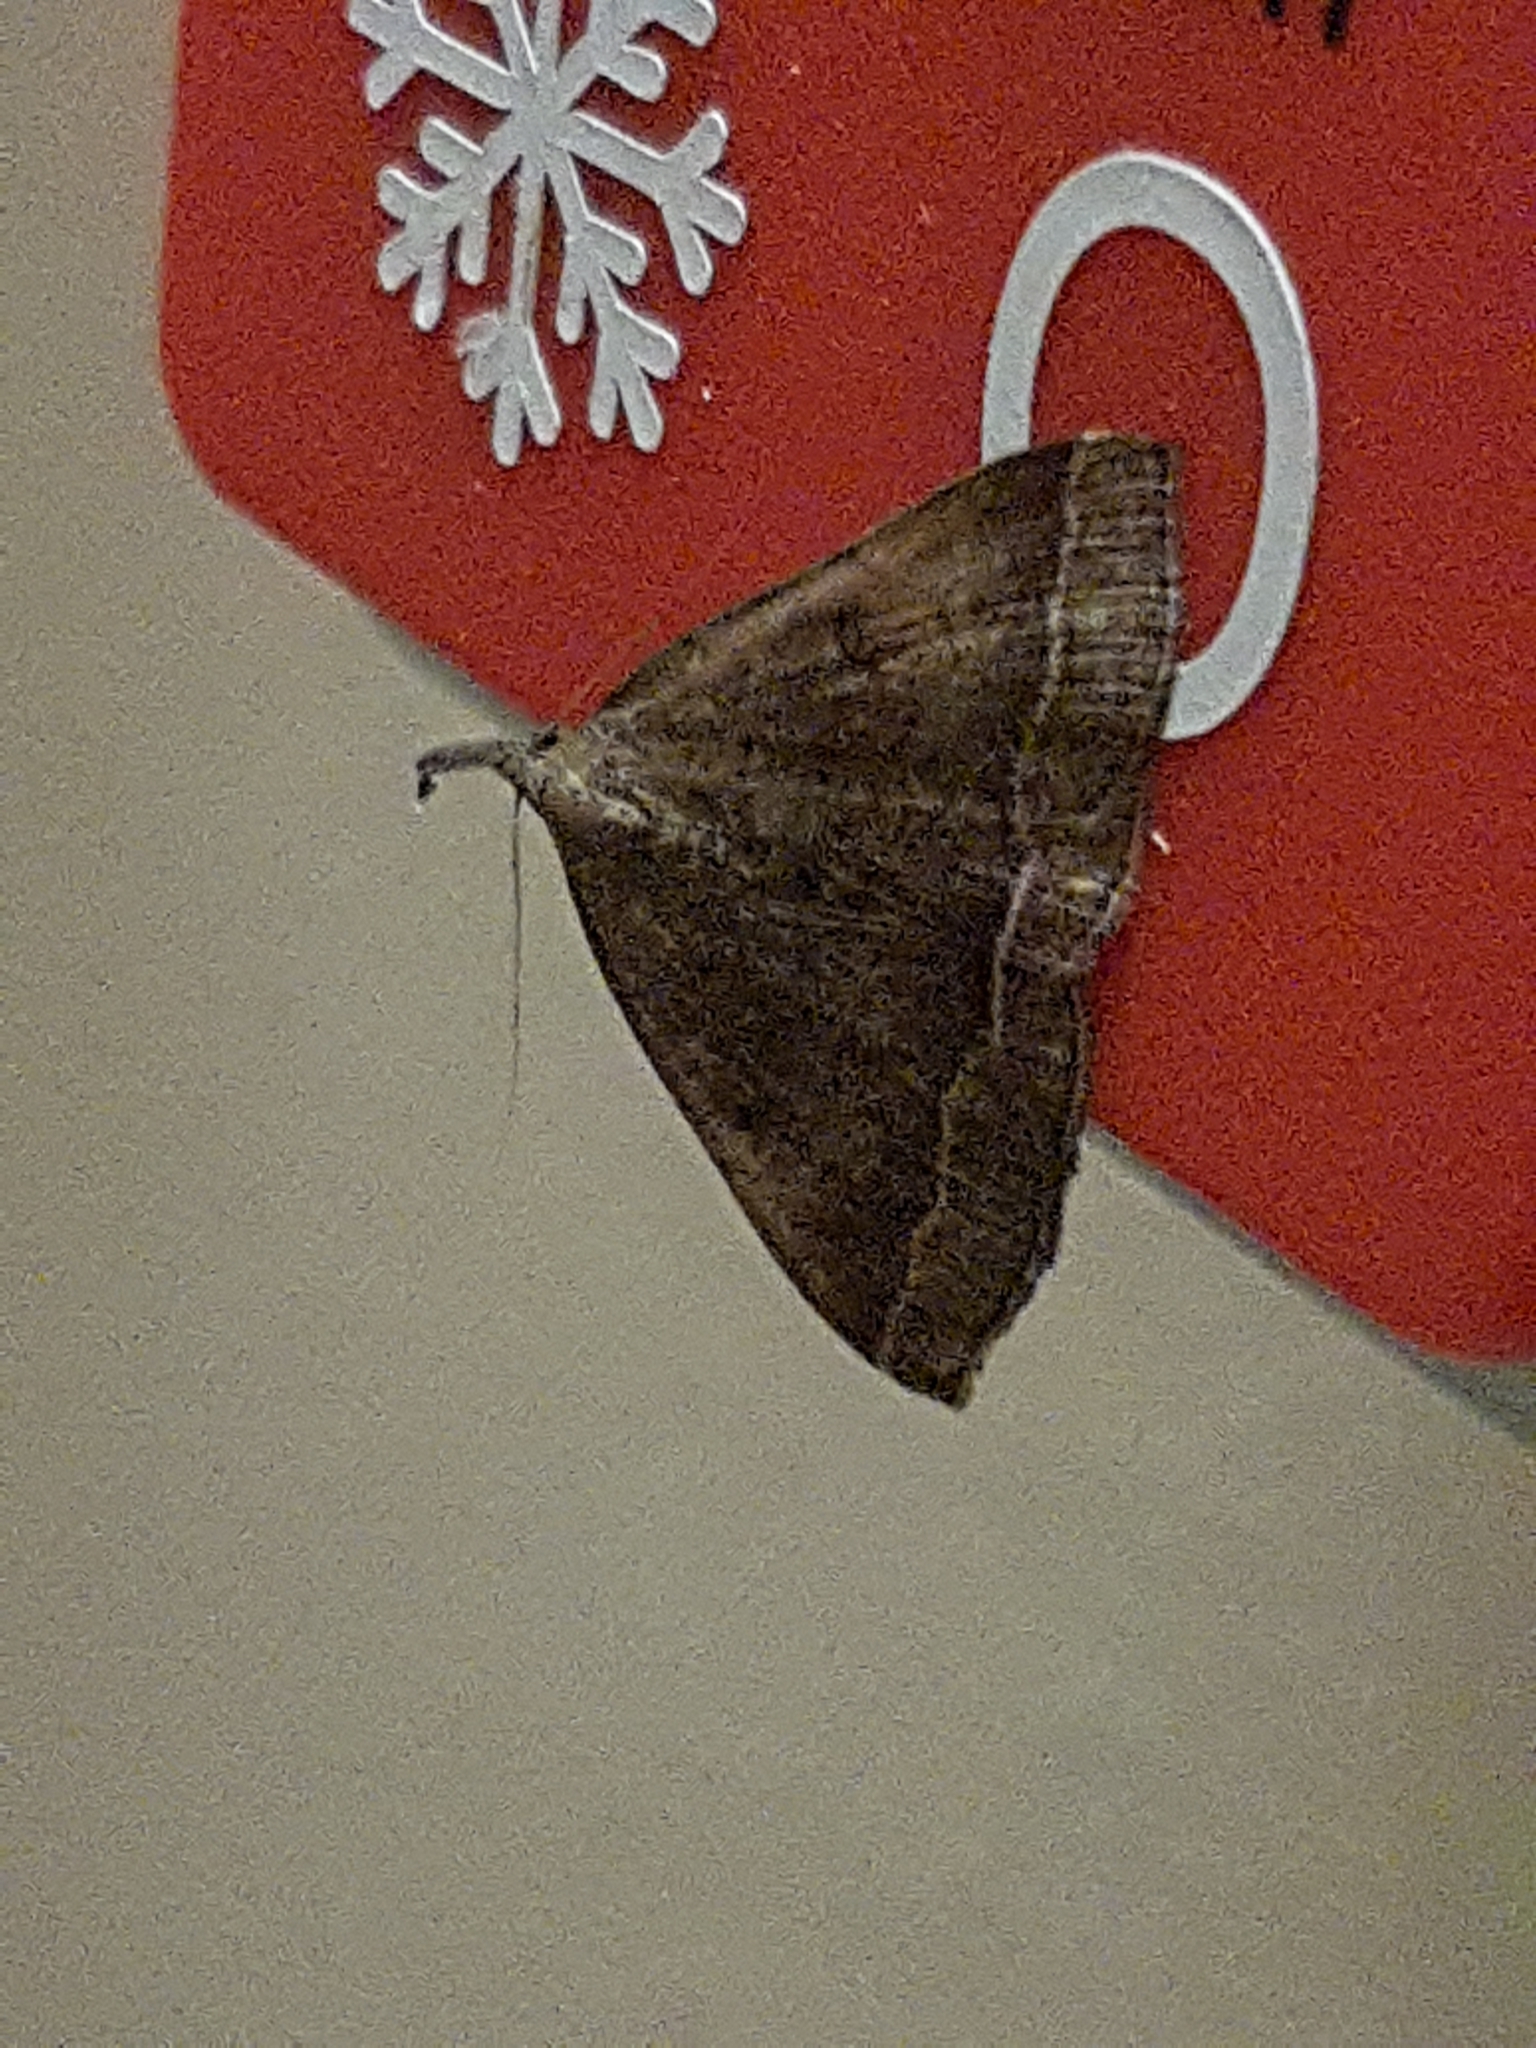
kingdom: Animalia
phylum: Arthropoda
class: Insecta
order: Lepidoptera
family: Erebidae
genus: Pechipogo
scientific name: Pechipogo plumigeralis
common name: Plumed fan-foot
